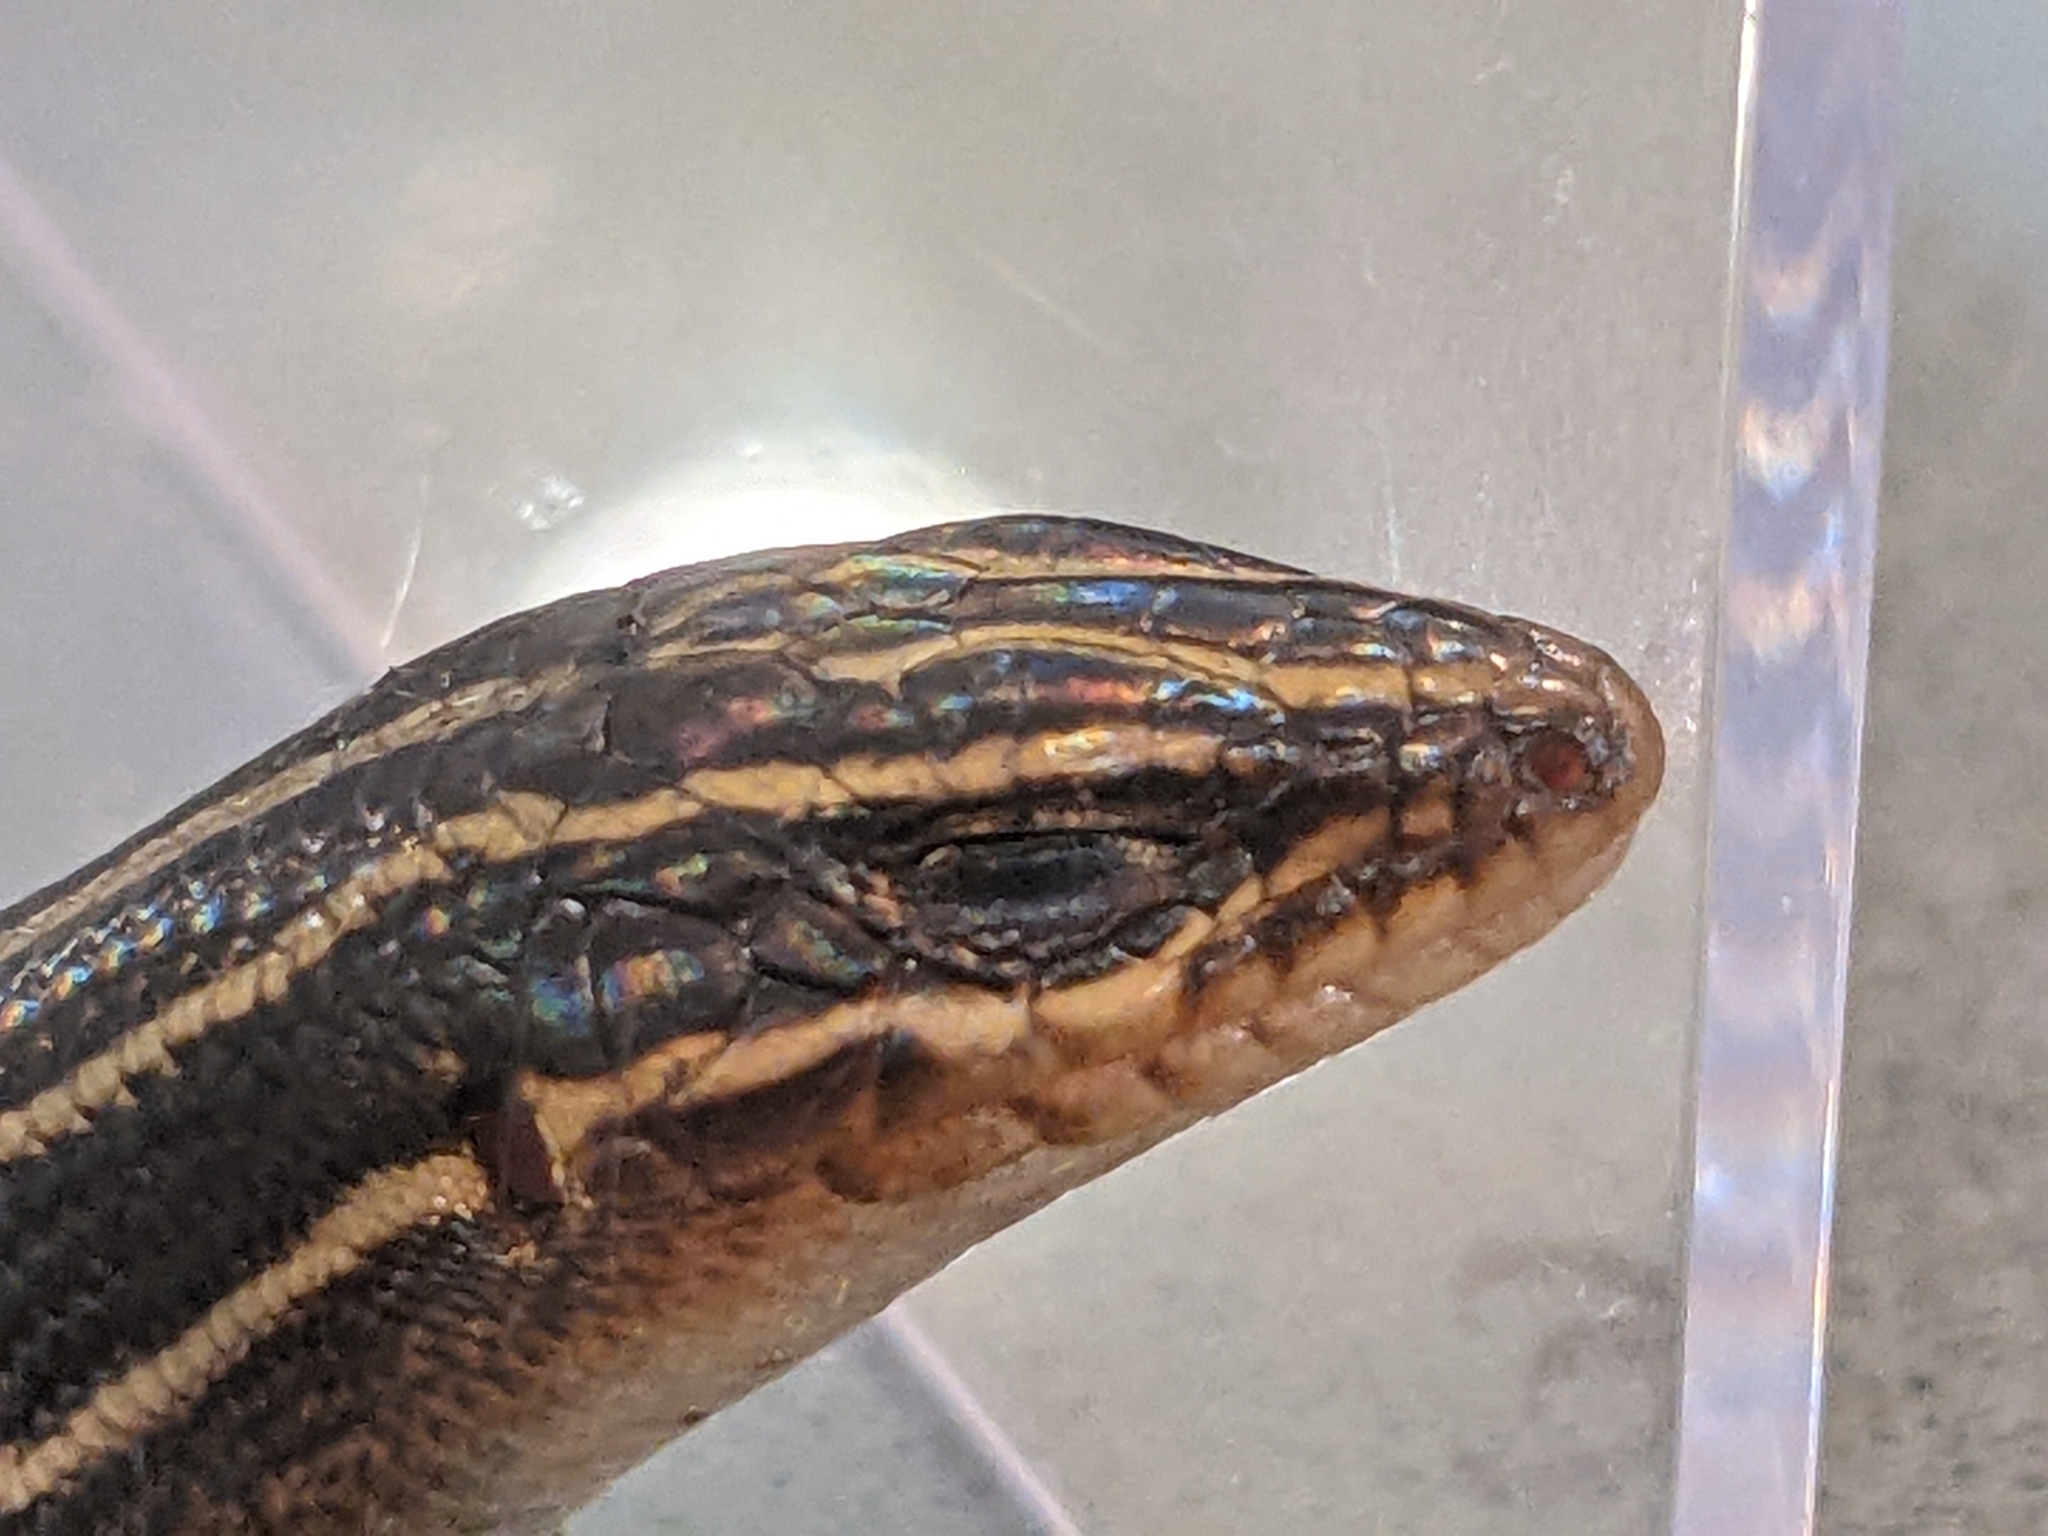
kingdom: Animalia
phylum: Chordata
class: Squamata
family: Scincidae
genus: Plestiodon
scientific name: Plestiodon laticeps
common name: Broadhead skink
